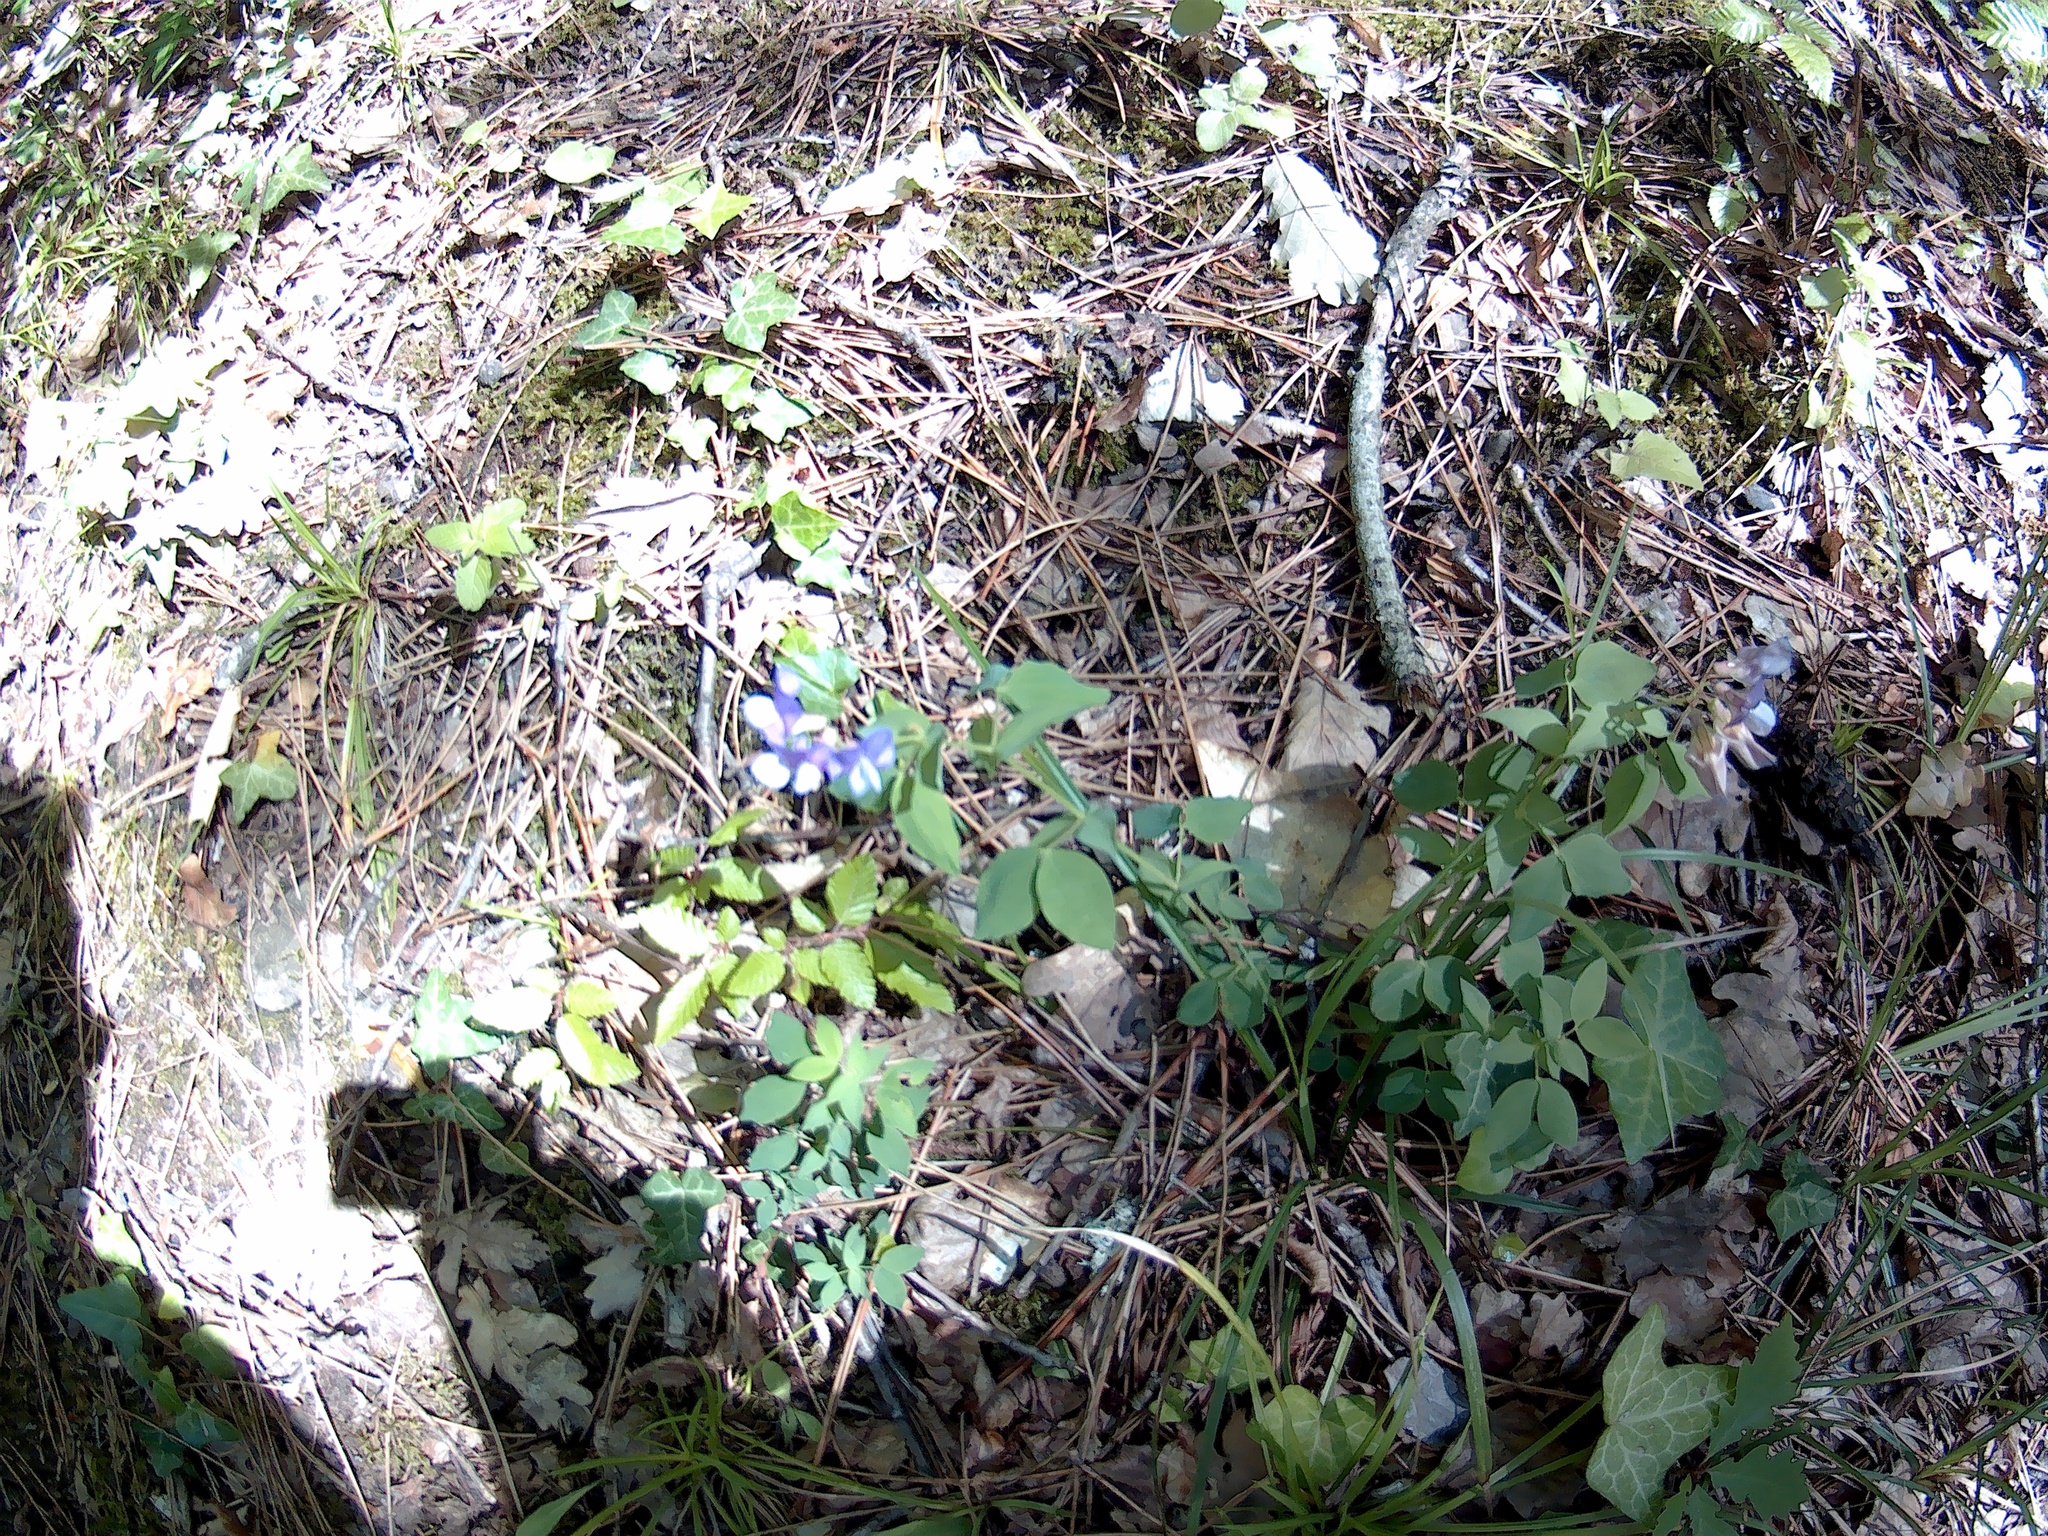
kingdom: Plantae
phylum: Tracheophyta
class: Magnoliopsida
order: Fabales
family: Fabaceae
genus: Lathyrus
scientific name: Lathyrus laxiflorus
